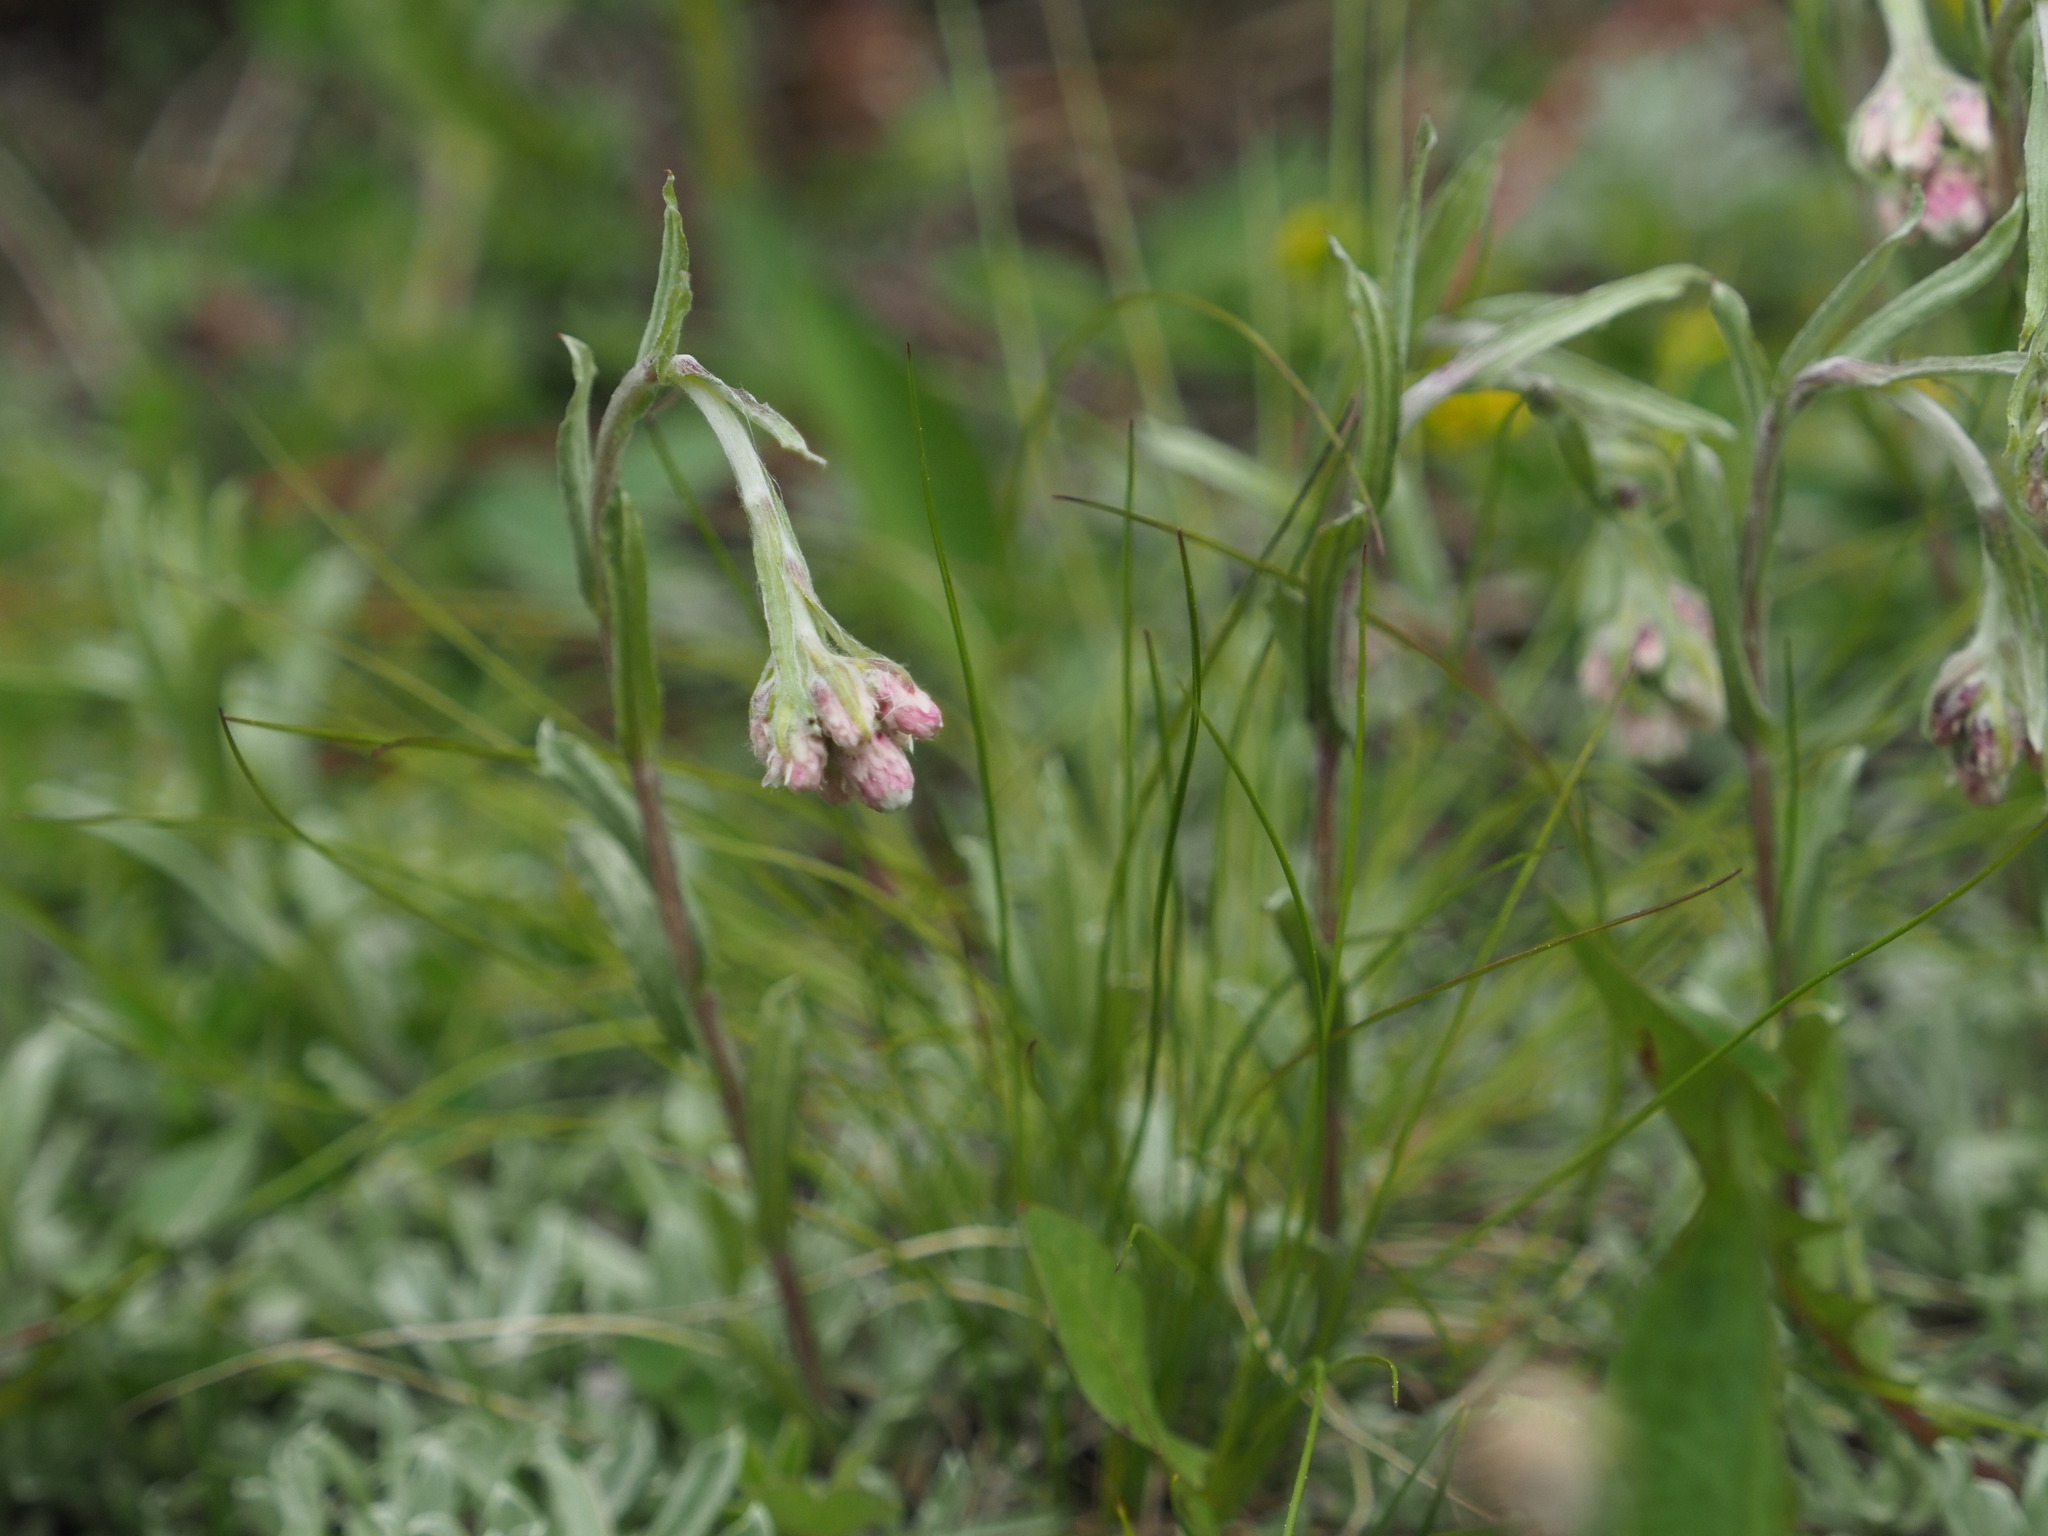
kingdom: Plantae
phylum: Tracheophyta
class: Magnoliopsida
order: Asterales
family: Asteraceae
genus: Antennaria
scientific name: Antennaria rosea
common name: Rosy pussytoes
